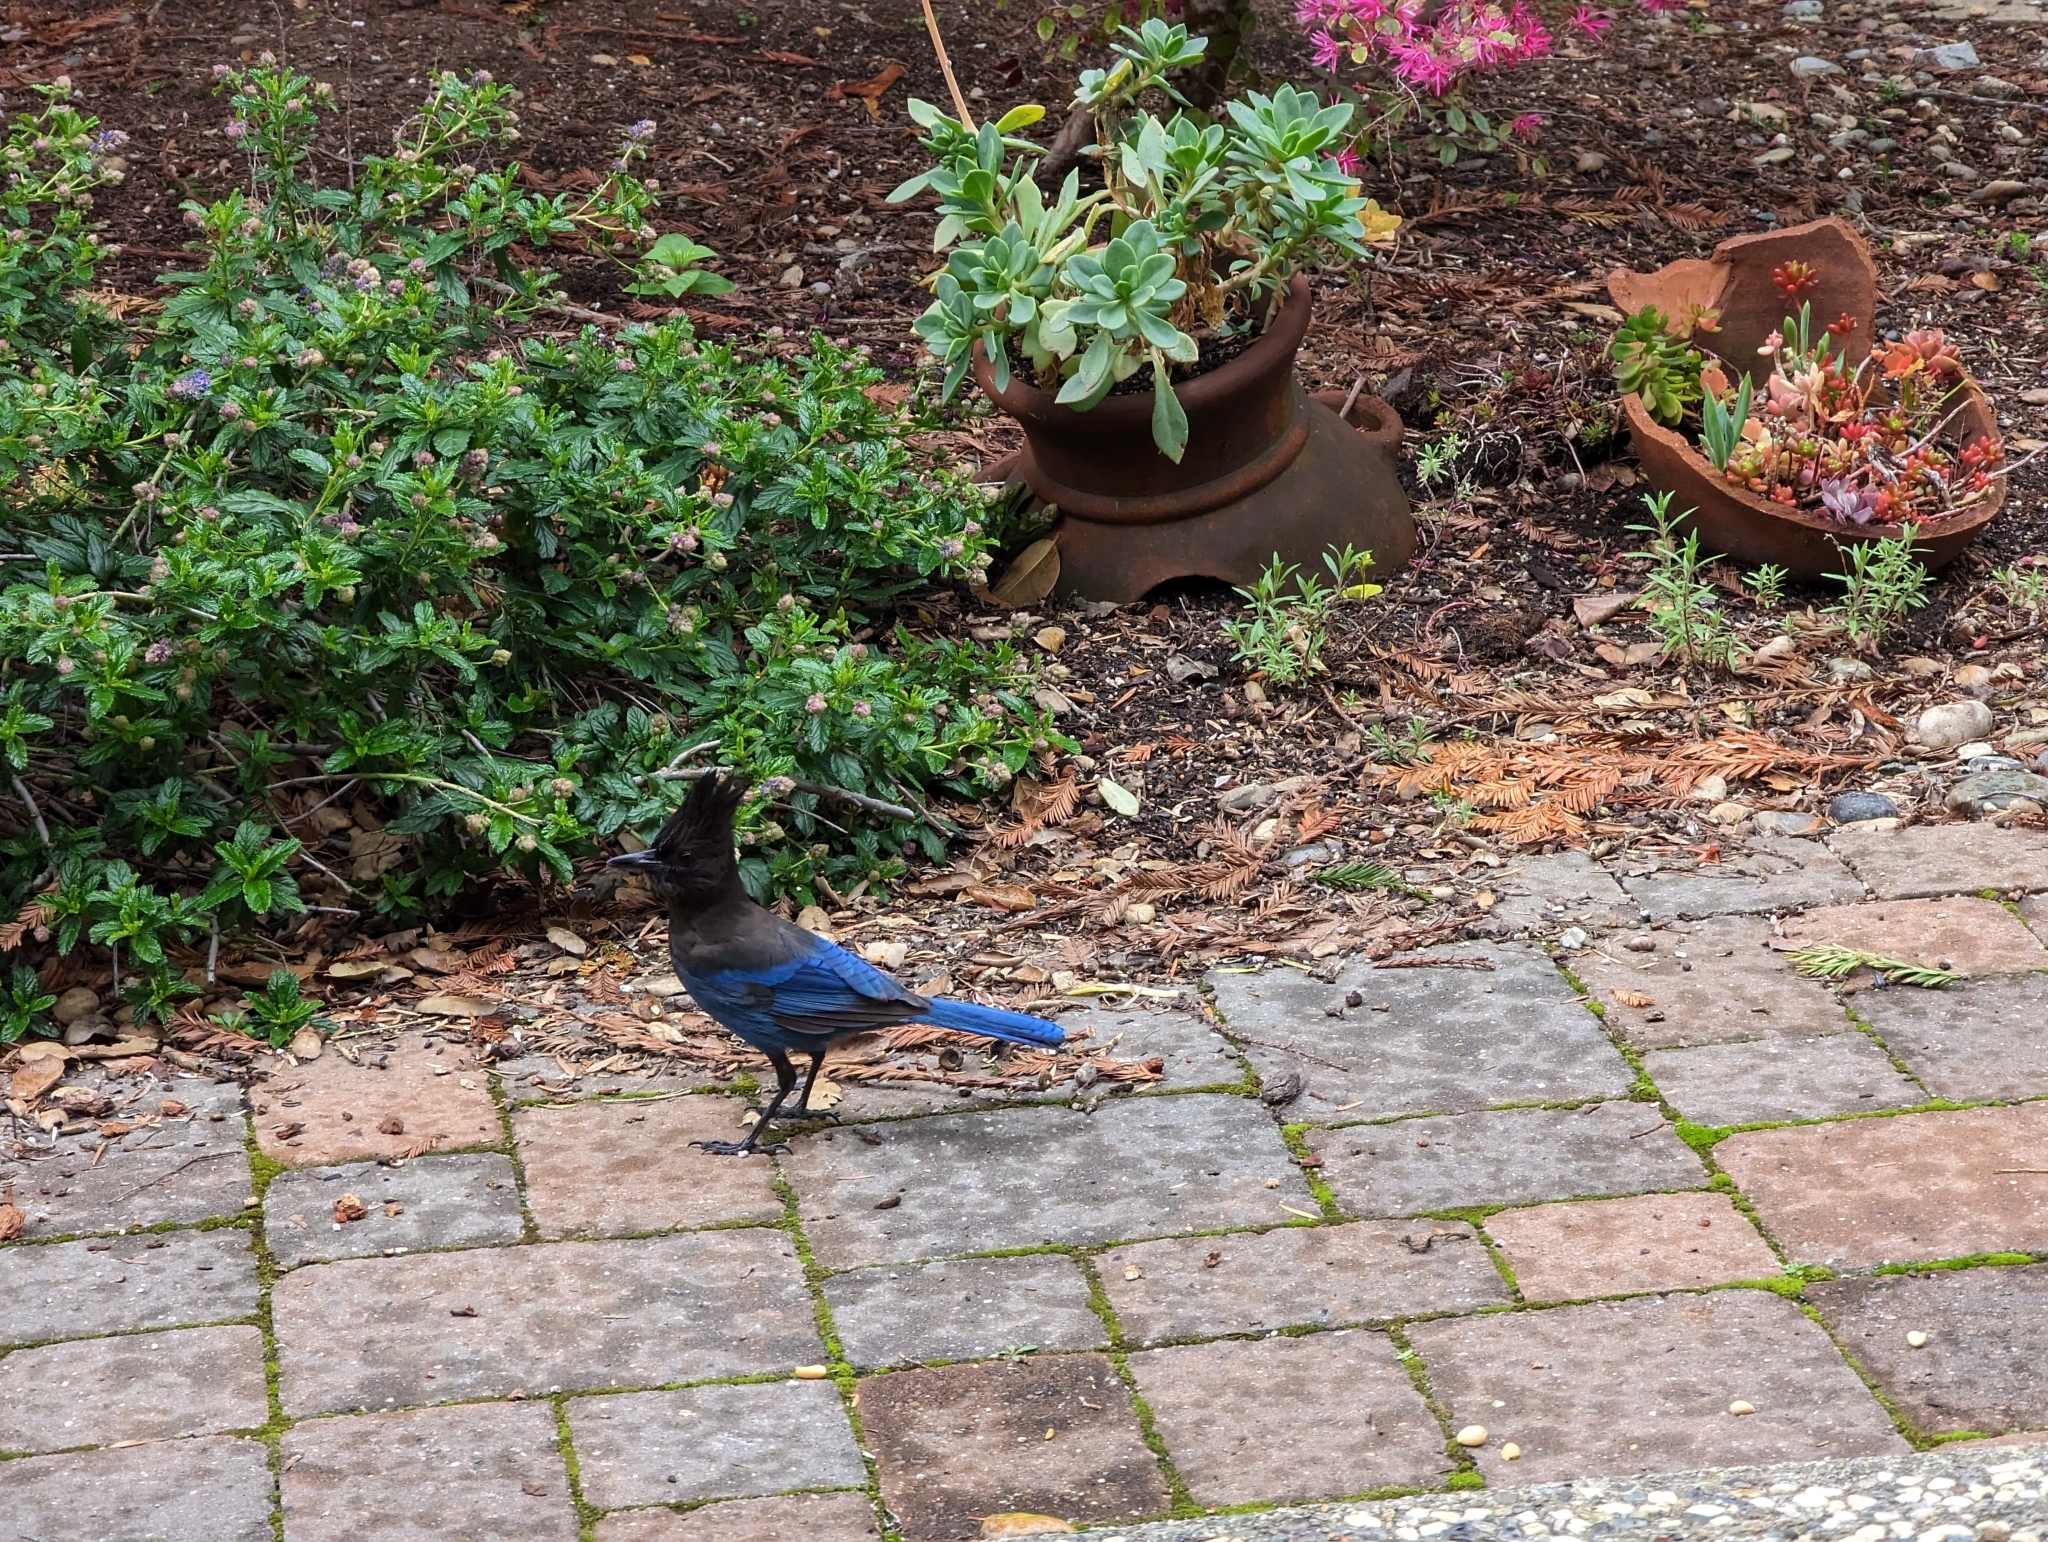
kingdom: Animalia
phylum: Chordata
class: Aves
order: Passeriformes
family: Corvidae
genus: Cyanocitta
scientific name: Cyanocitta stelleri
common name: Steller's jay
